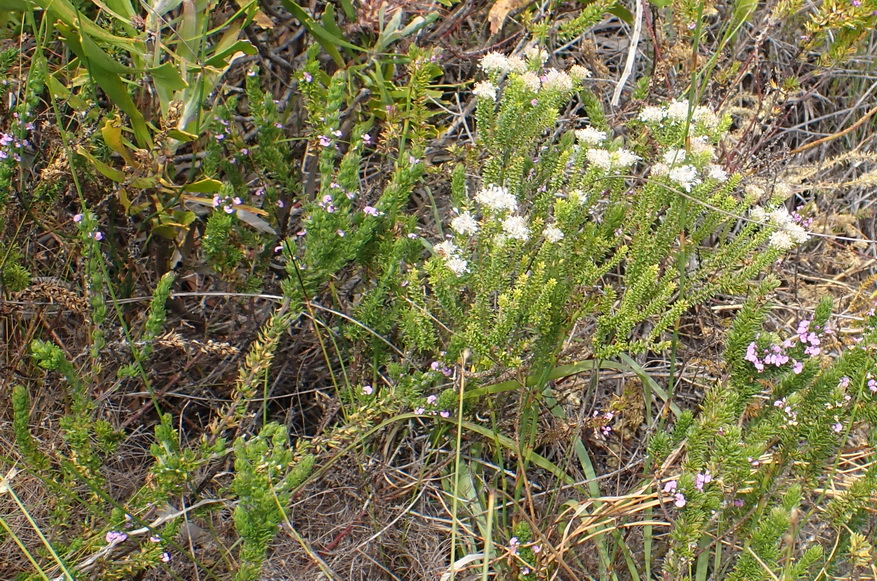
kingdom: Plantae
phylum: Tracheophyta
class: Magnoliopsida
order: Sapindales
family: Rutaceae
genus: Agathosma
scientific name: Agathosma imbricata
